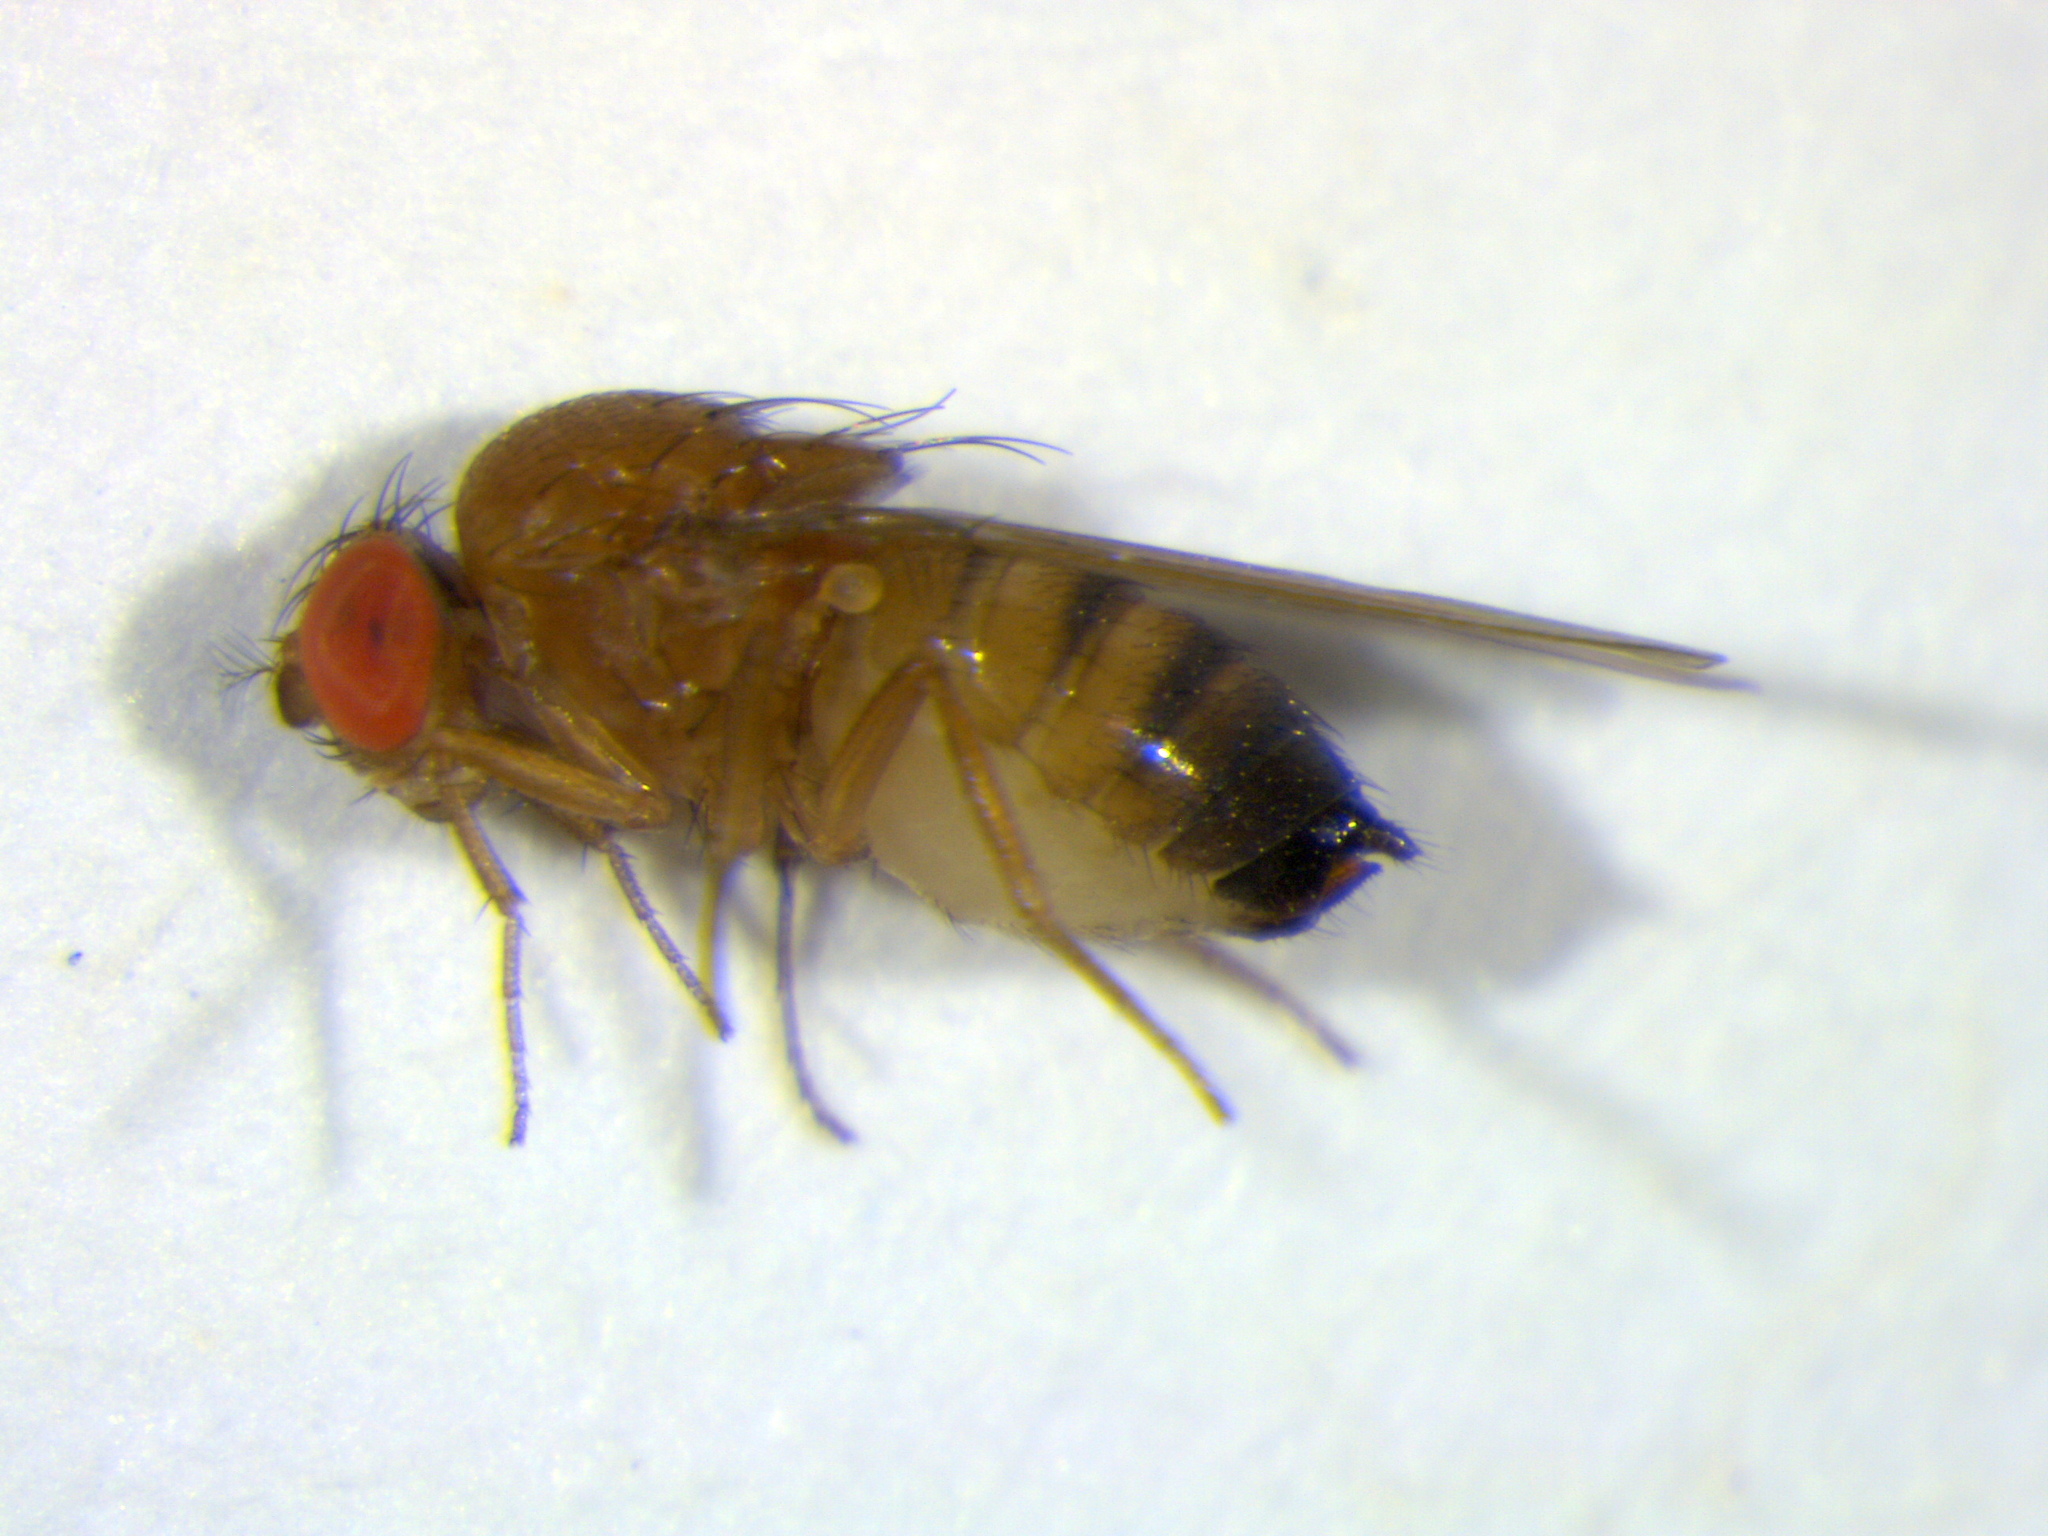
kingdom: Animalia
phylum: Arthropoda
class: Insecta
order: Diptera
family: Drosophilidae
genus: Drosophila
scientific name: Drosophila suzukii
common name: Spotted-wing drosophila
